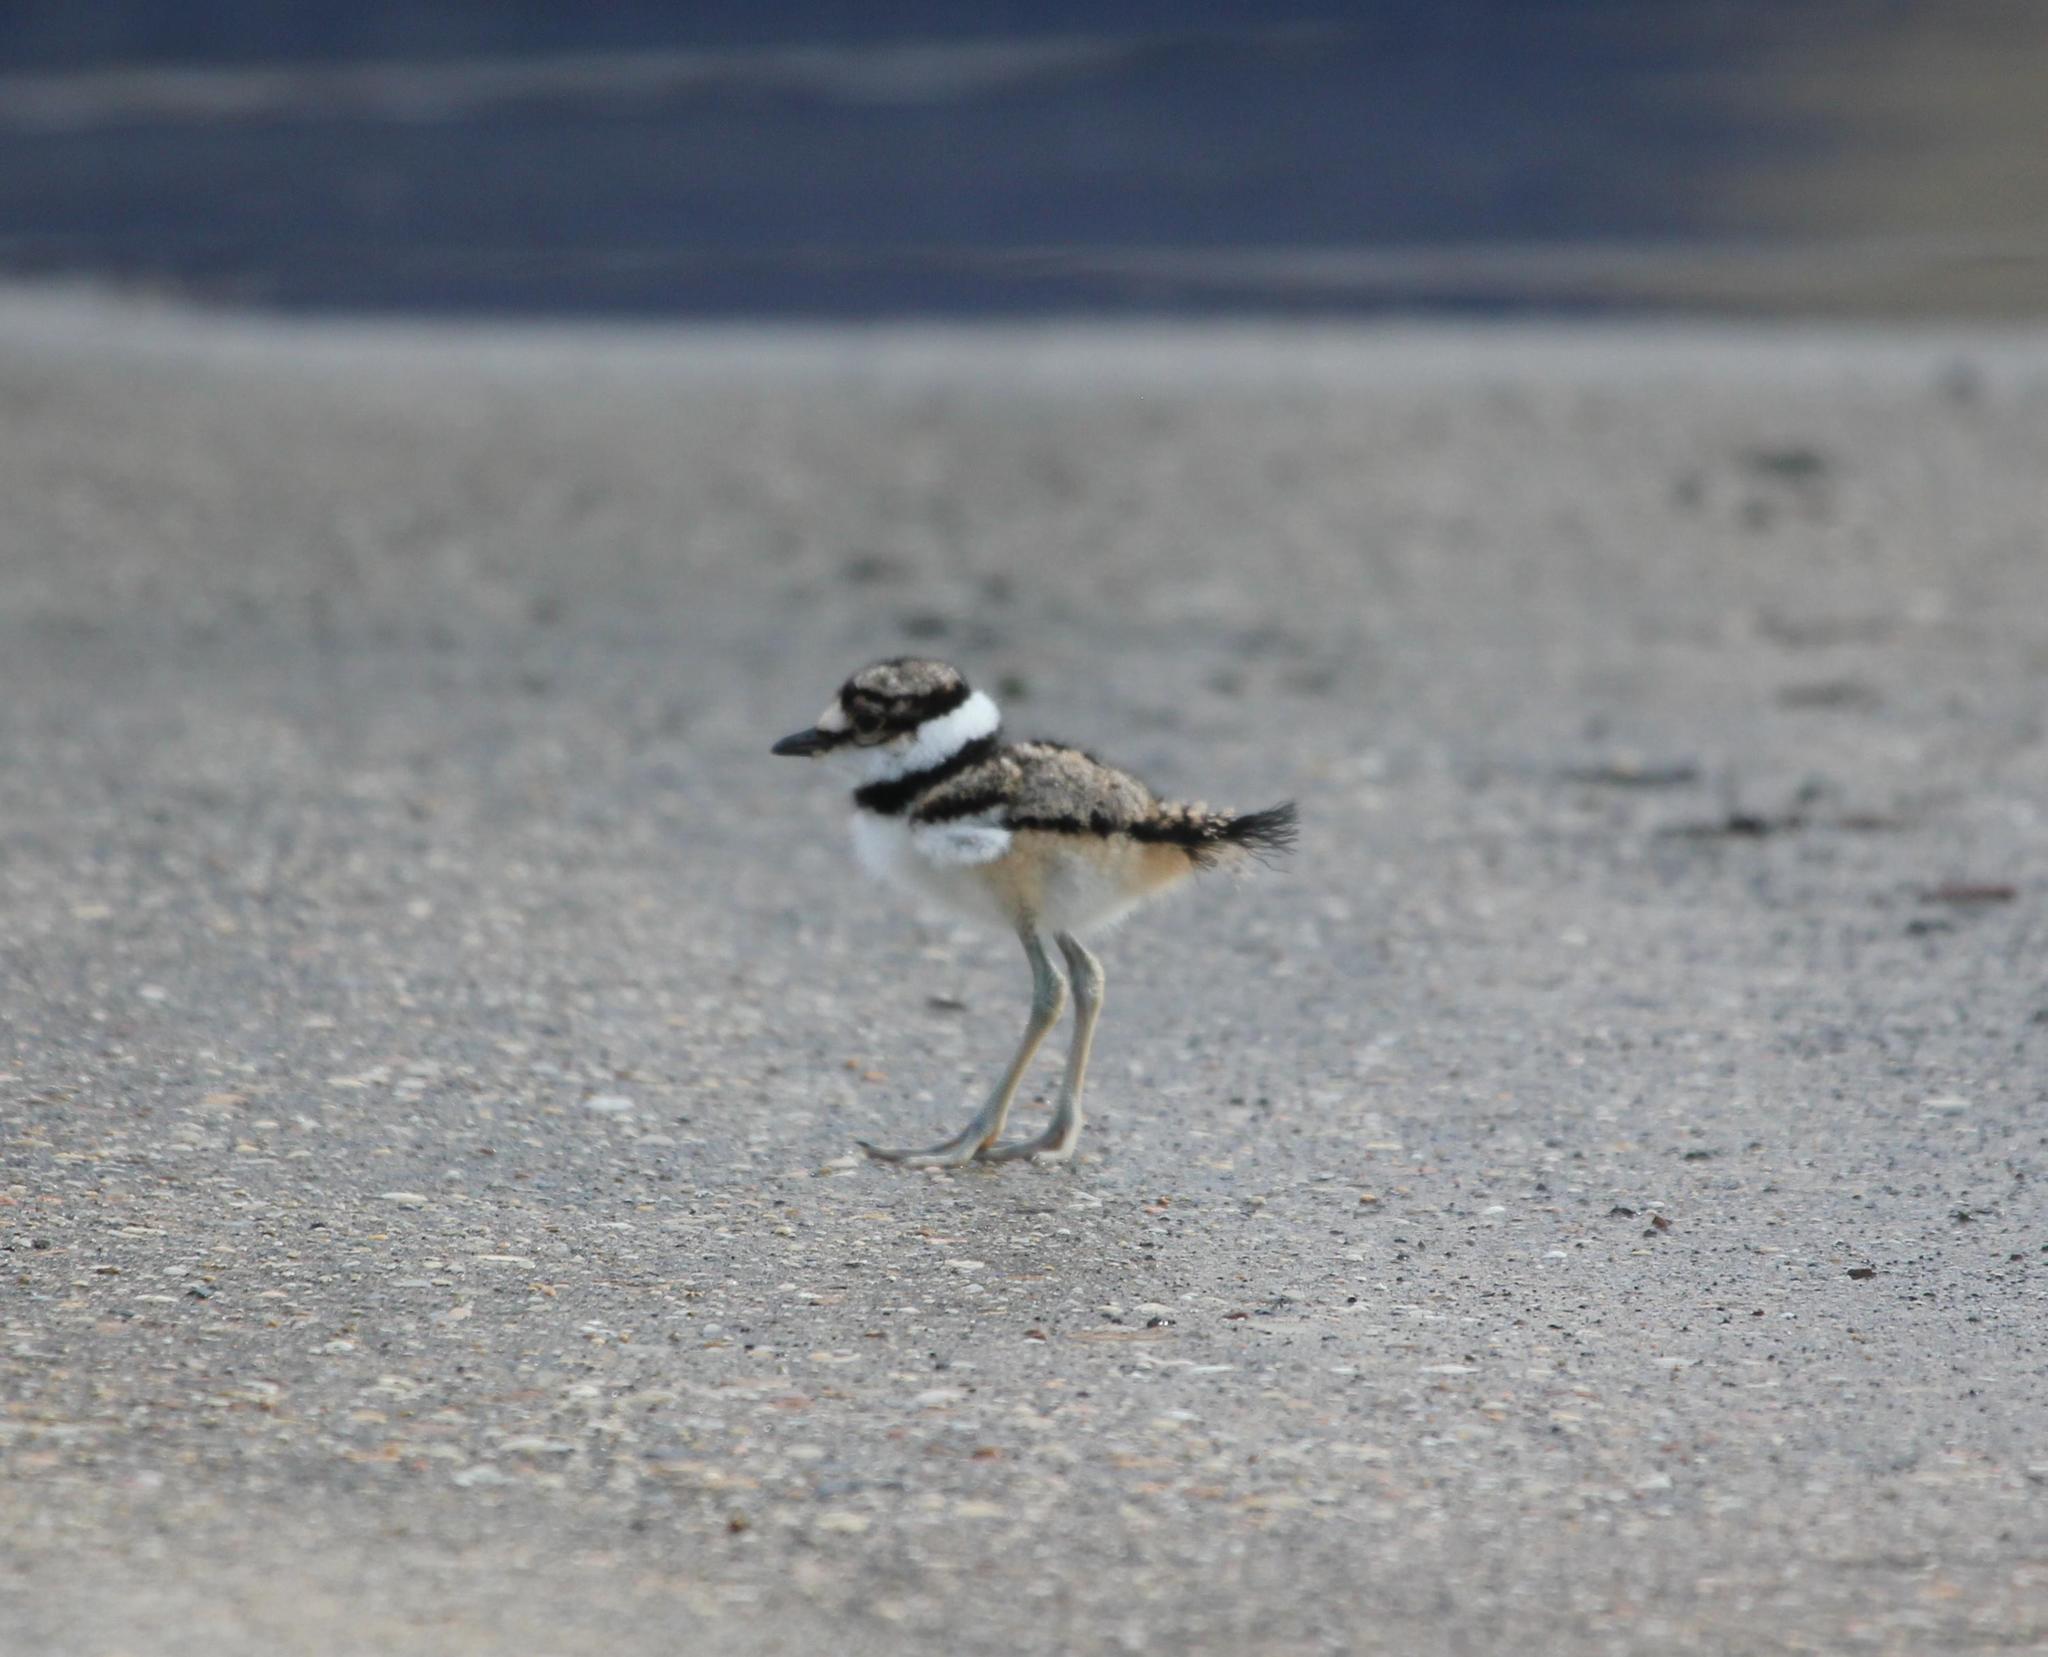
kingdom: Animalia
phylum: Chordata
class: Aves
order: Charadriiformes
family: Charadriidae
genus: Charadrius
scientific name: Charadrius vociferus
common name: Killdeer
